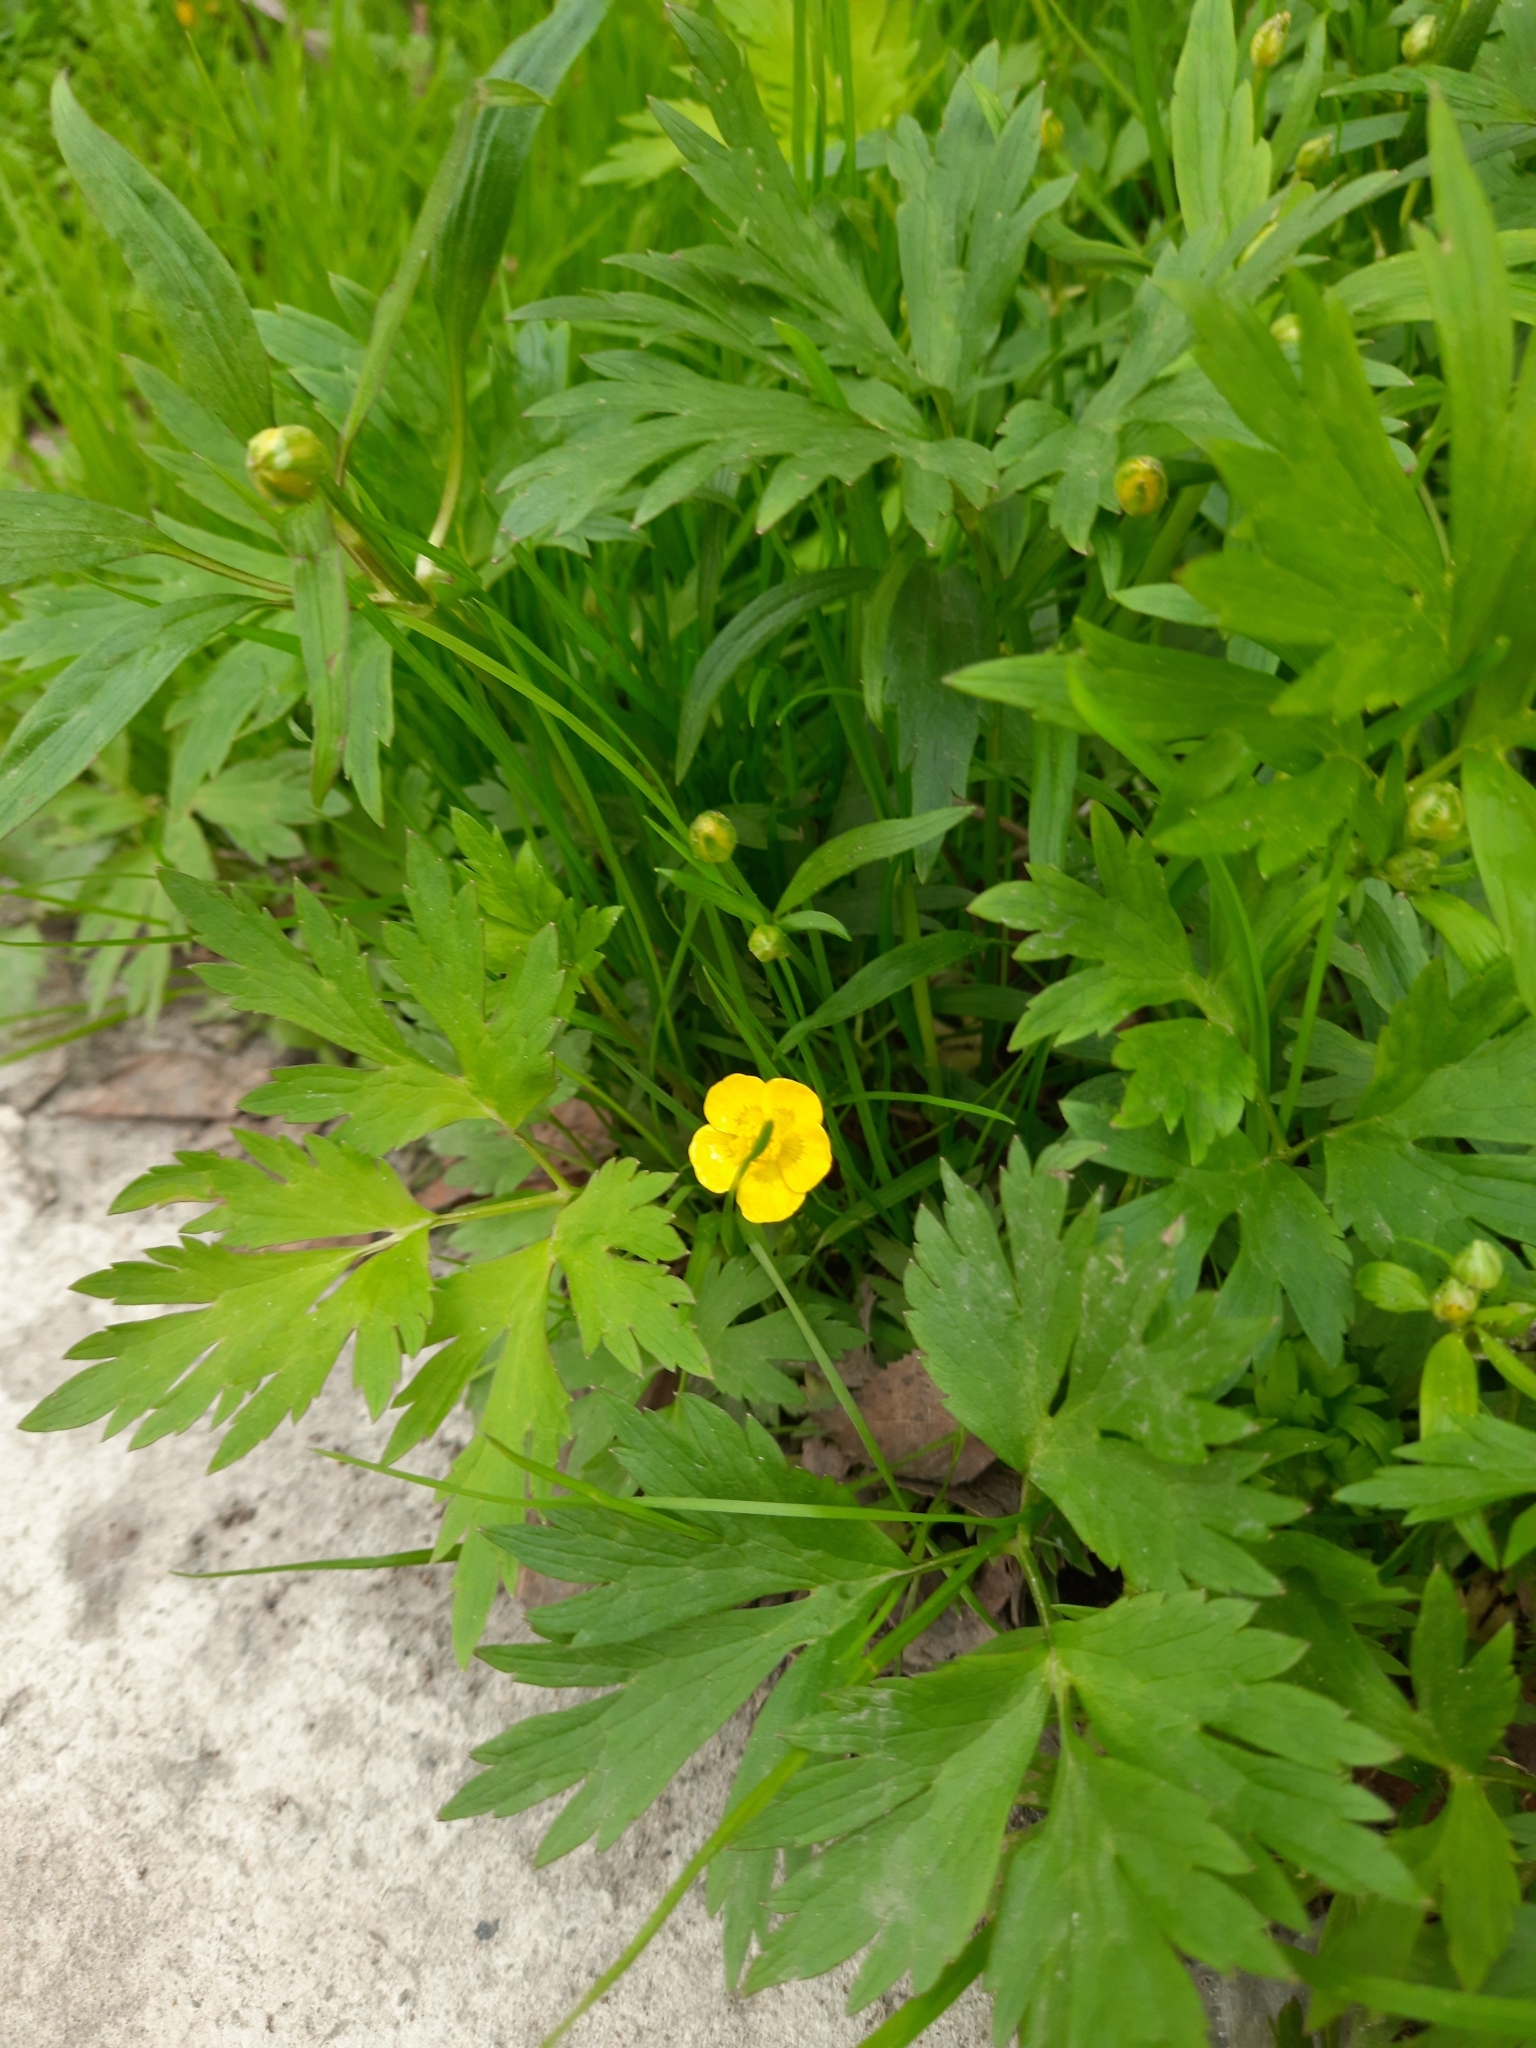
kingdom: Plantae
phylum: Tracheophyta
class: Magnoliopsida
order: Ranunculales
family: Ranunculaceae
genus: Ranunculus
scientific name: Ranunculus repens
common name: Creeping buttercup
